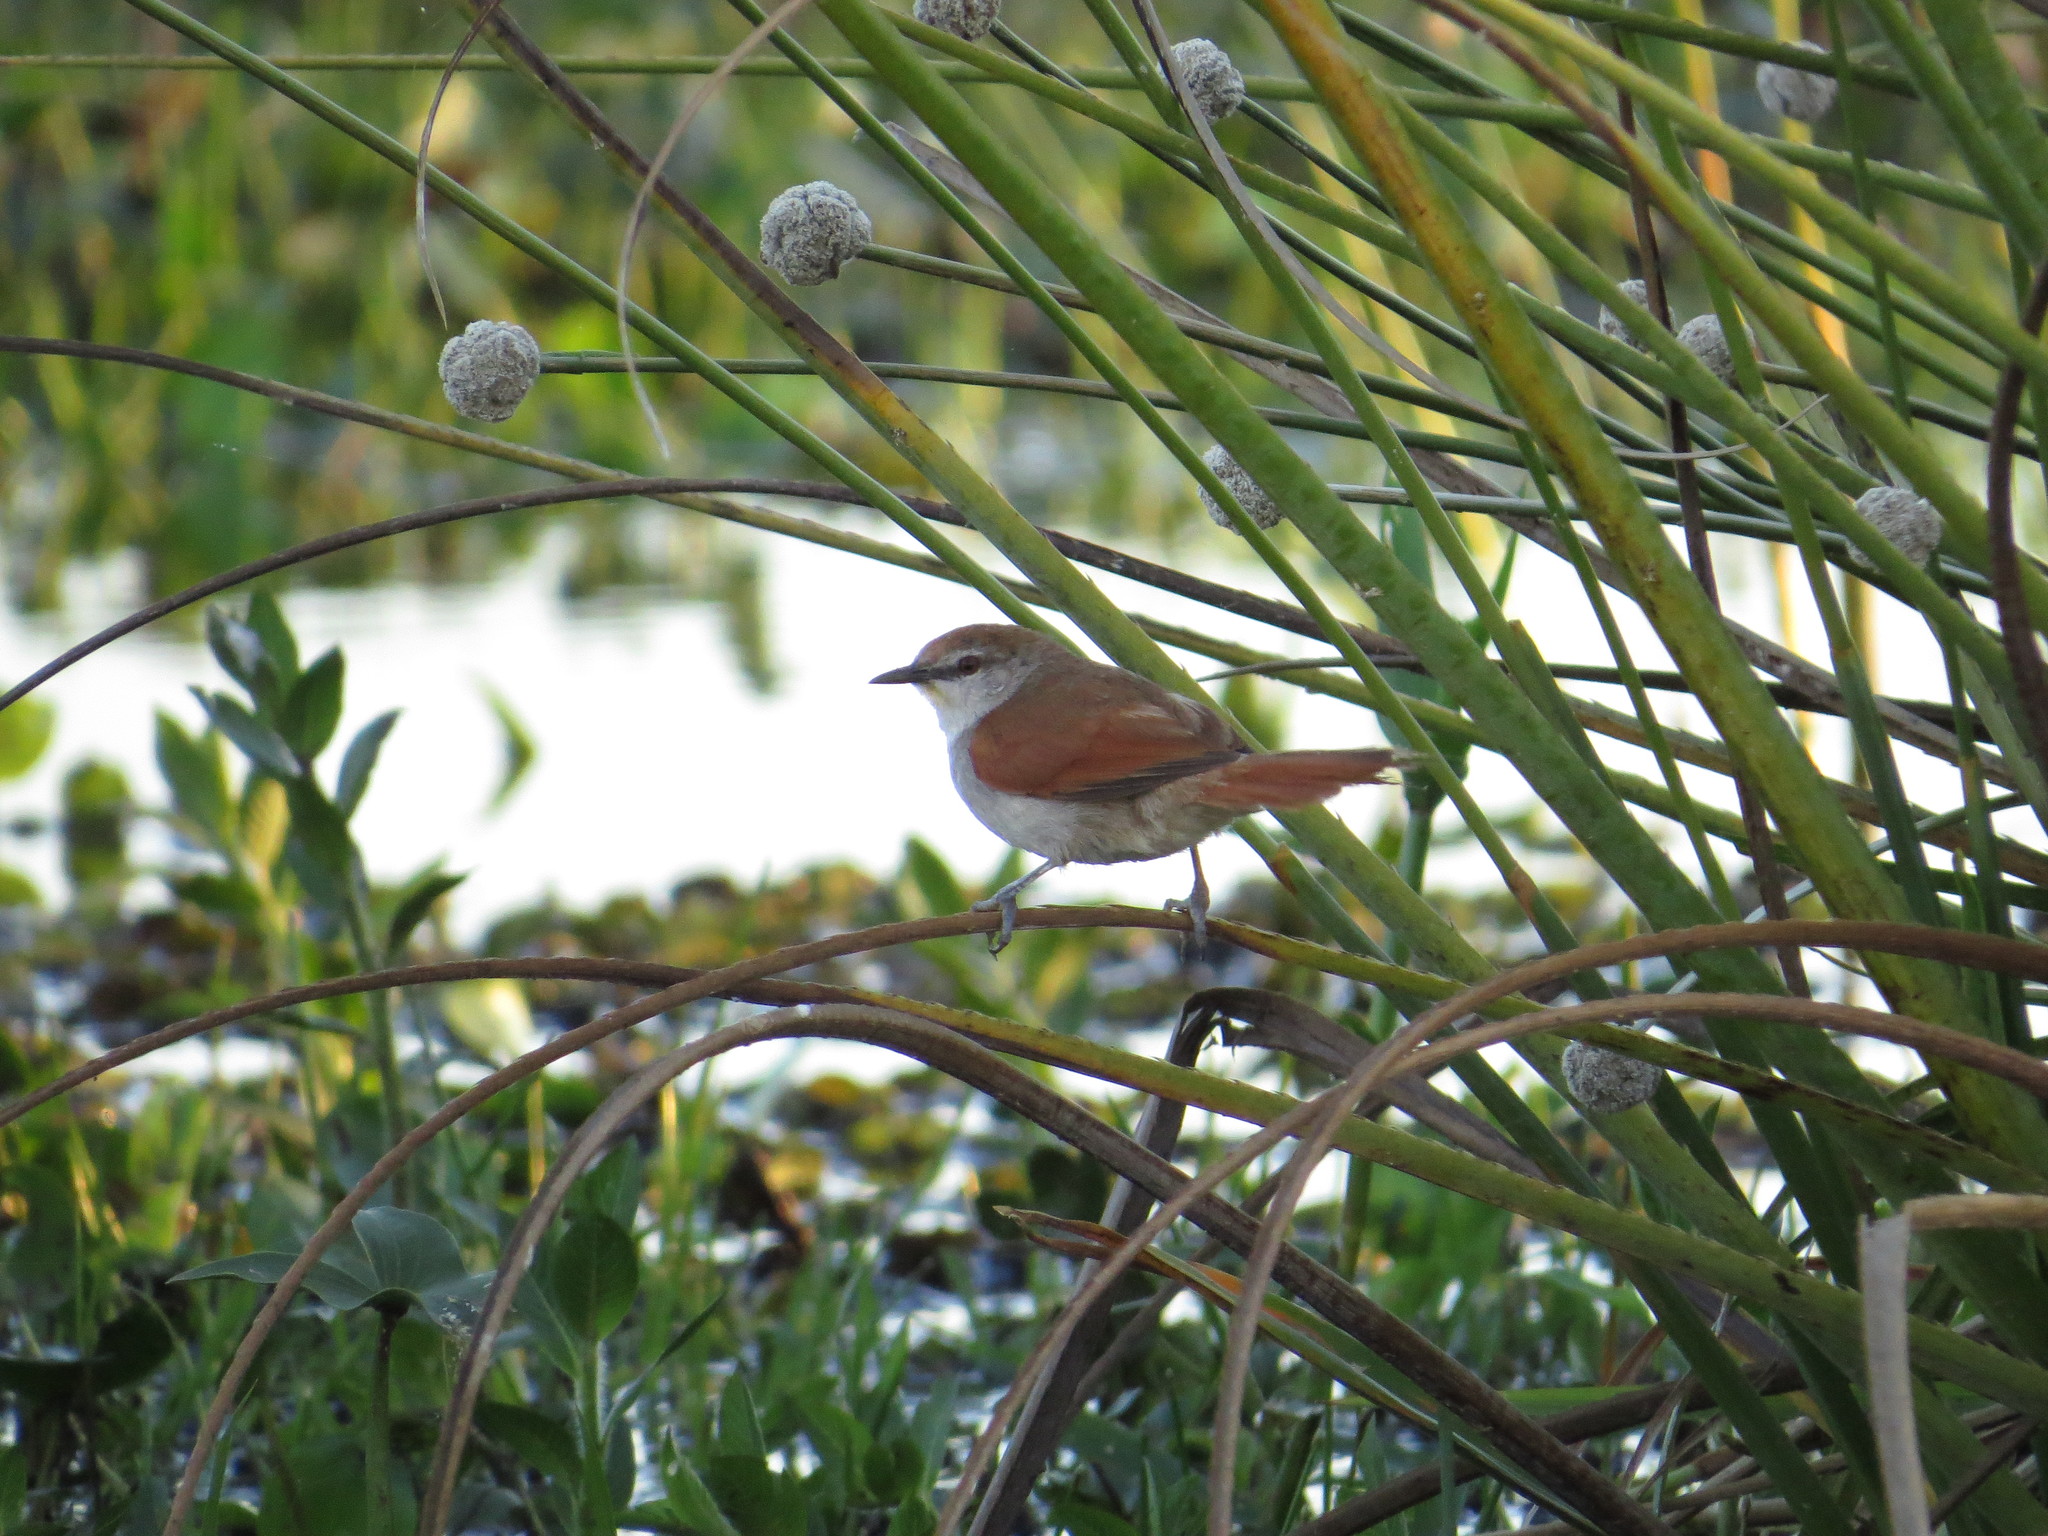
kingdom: Animalia
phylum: Chordata
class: Aves
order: Passeriformes
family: Furnariidae
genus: Certhiaxis
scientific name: Certhiaxis cinnamomeus
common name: Yellow-chinned spinetail
